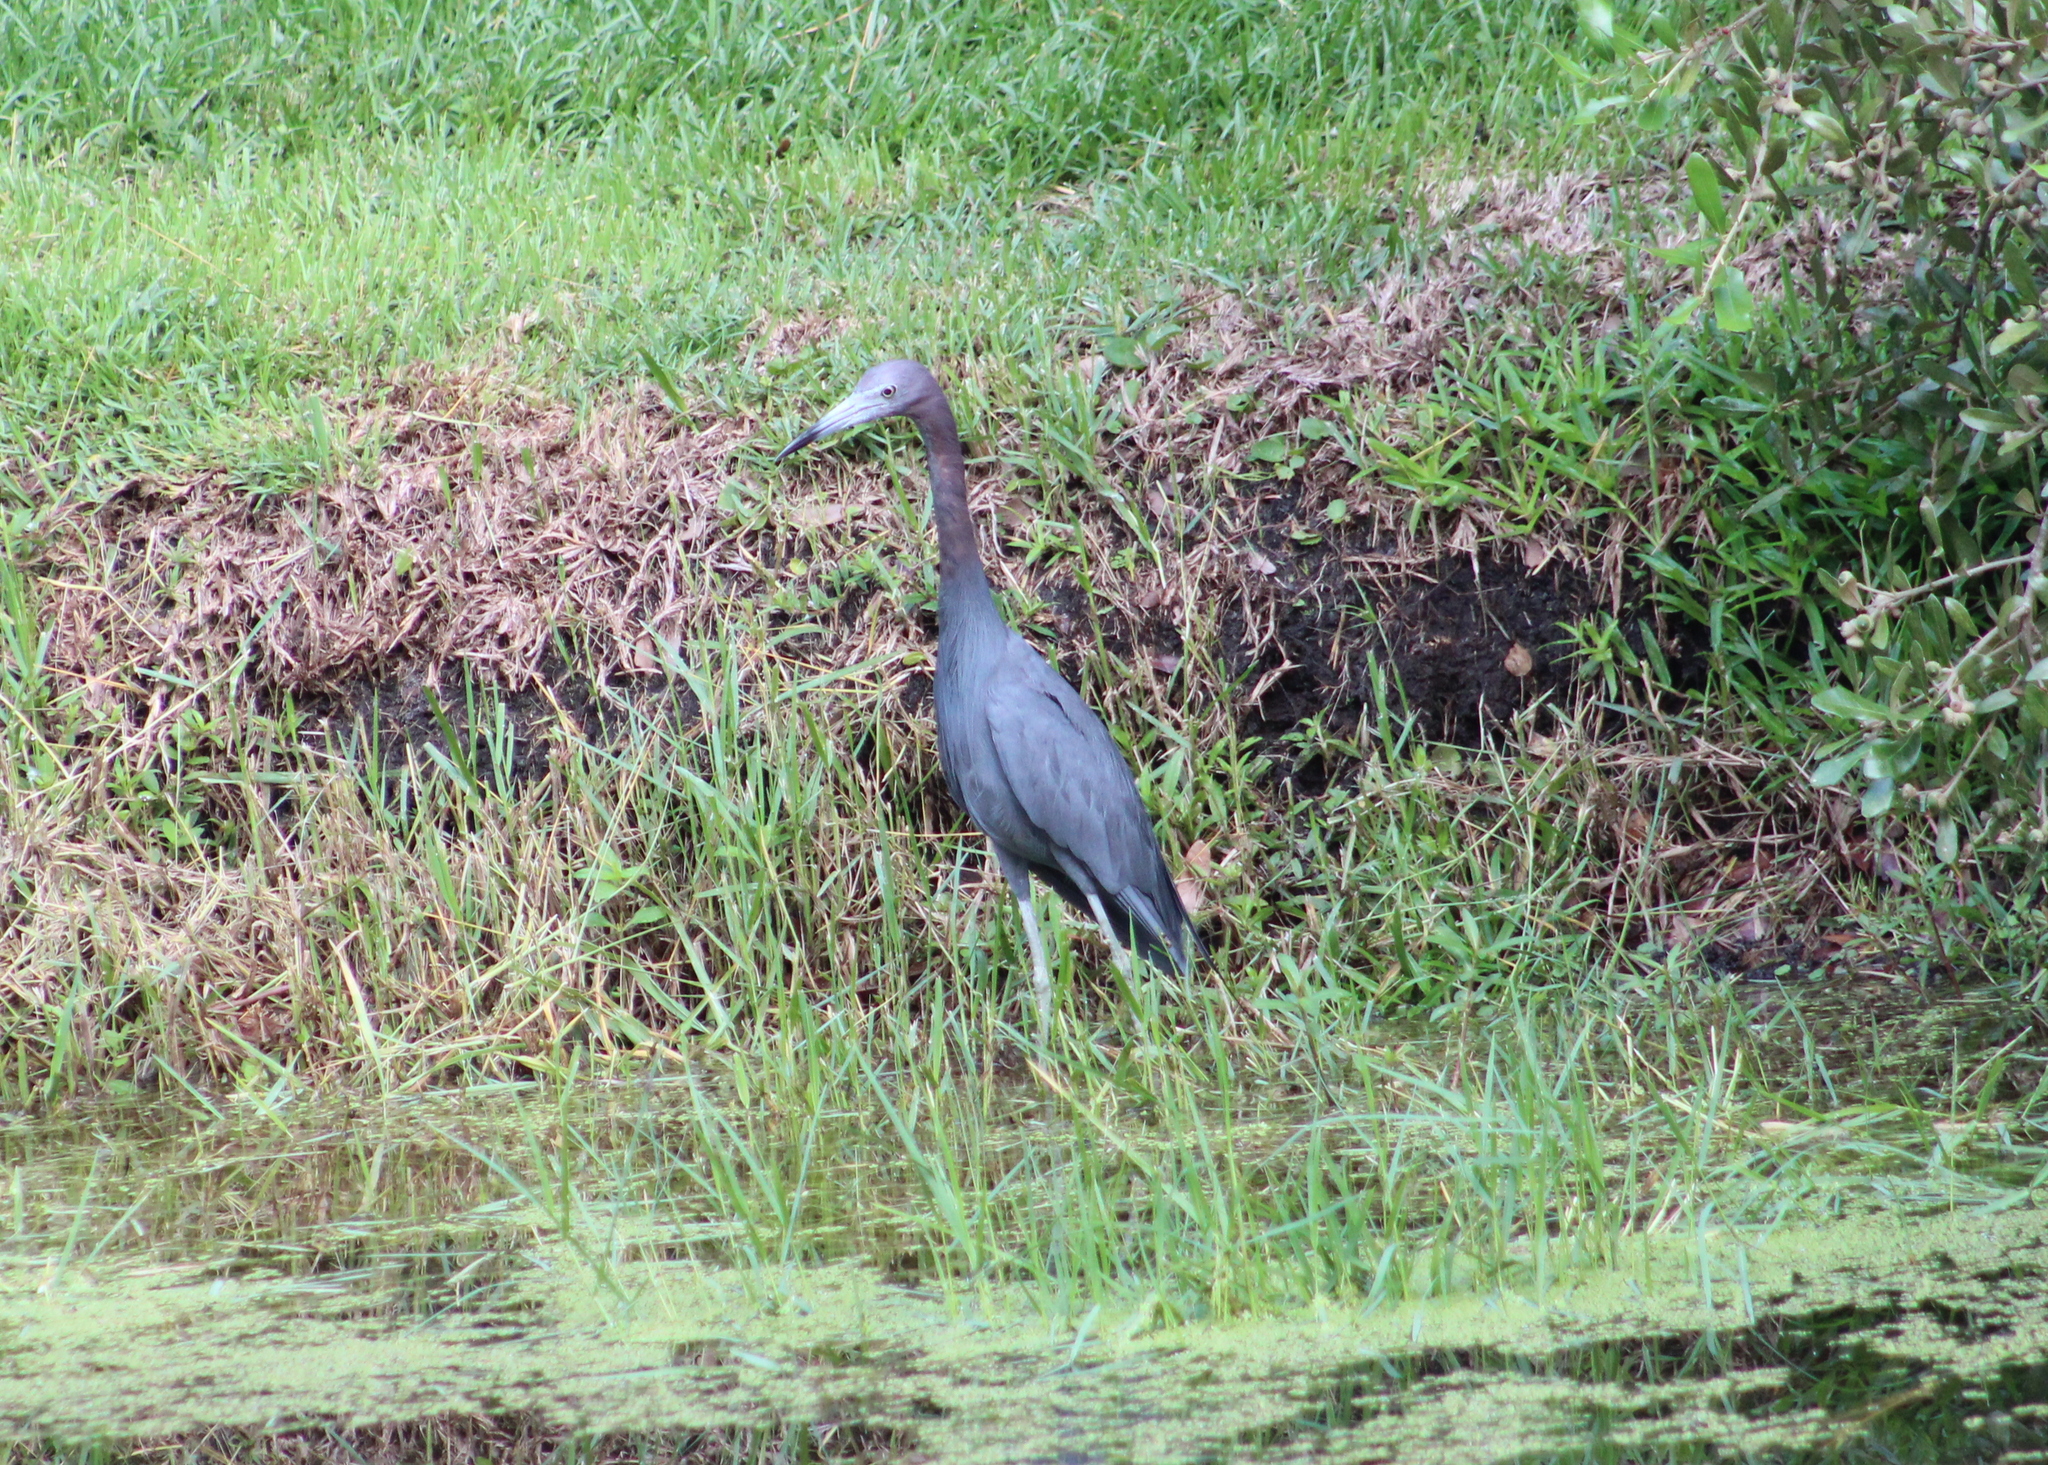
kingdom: Animalia
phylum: Chordata
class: Aves
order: Pelecaniformes
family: Ardeidae
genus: Egretta
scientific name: Egretta caerulea
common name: Little blue heron
